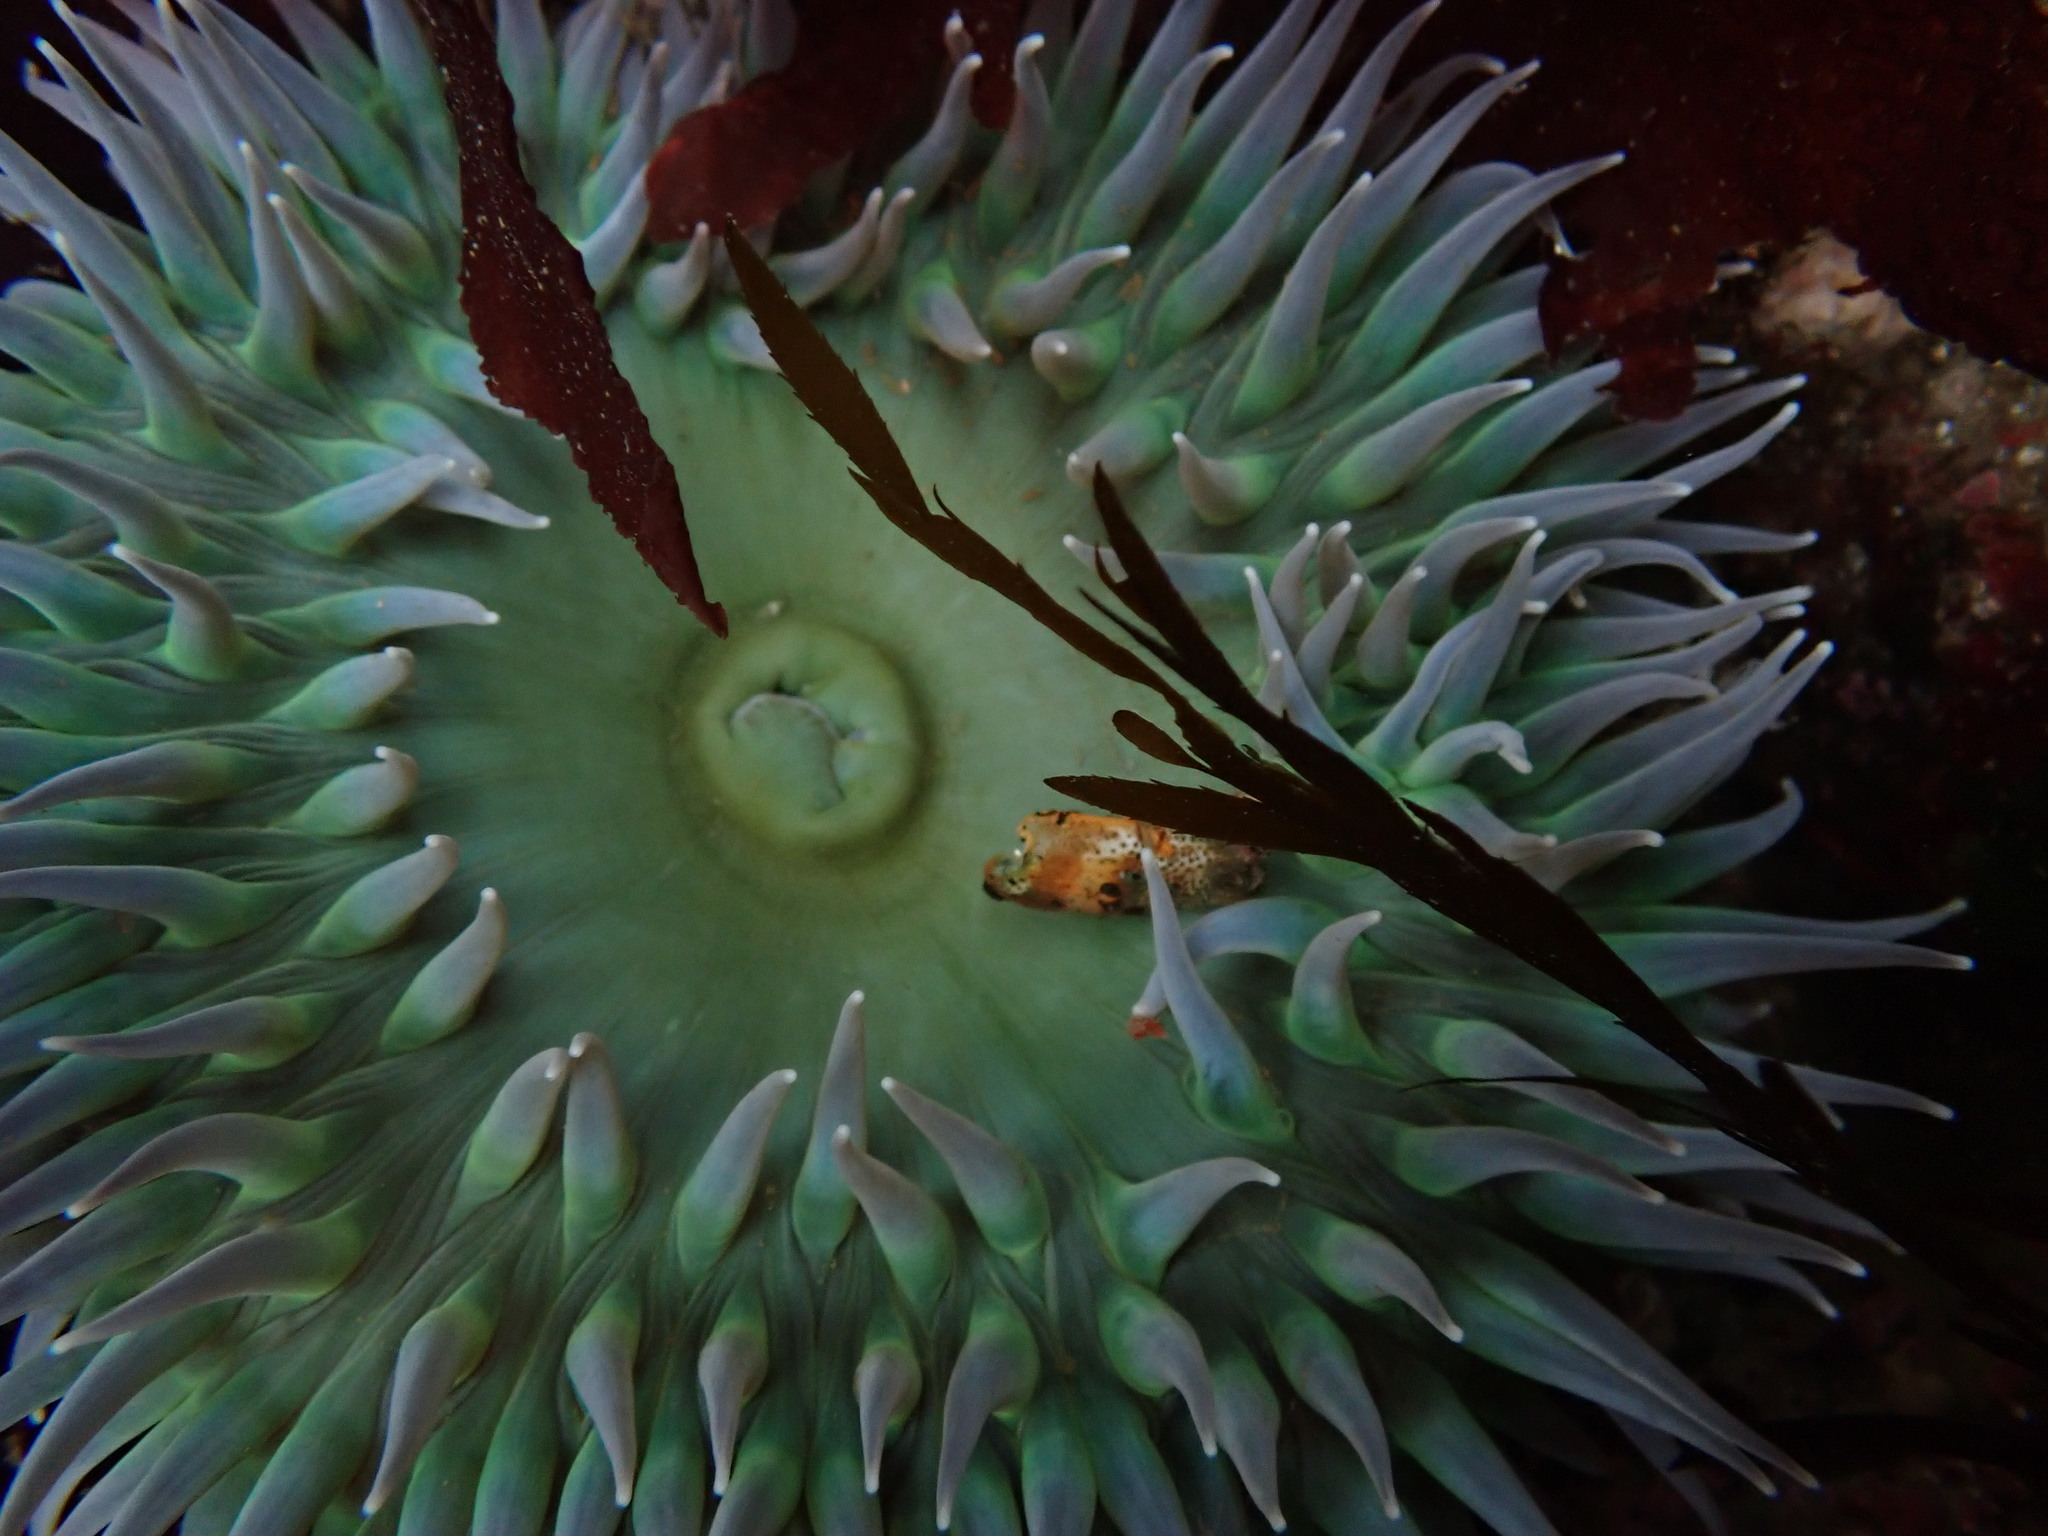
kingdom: Animalia
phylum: Cnidaria
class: Anthozoa
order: Actiniaria
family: Actiniidae
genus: Anthopleura
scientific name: Anthopleura xanthogrammica
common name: Giant green anemone
